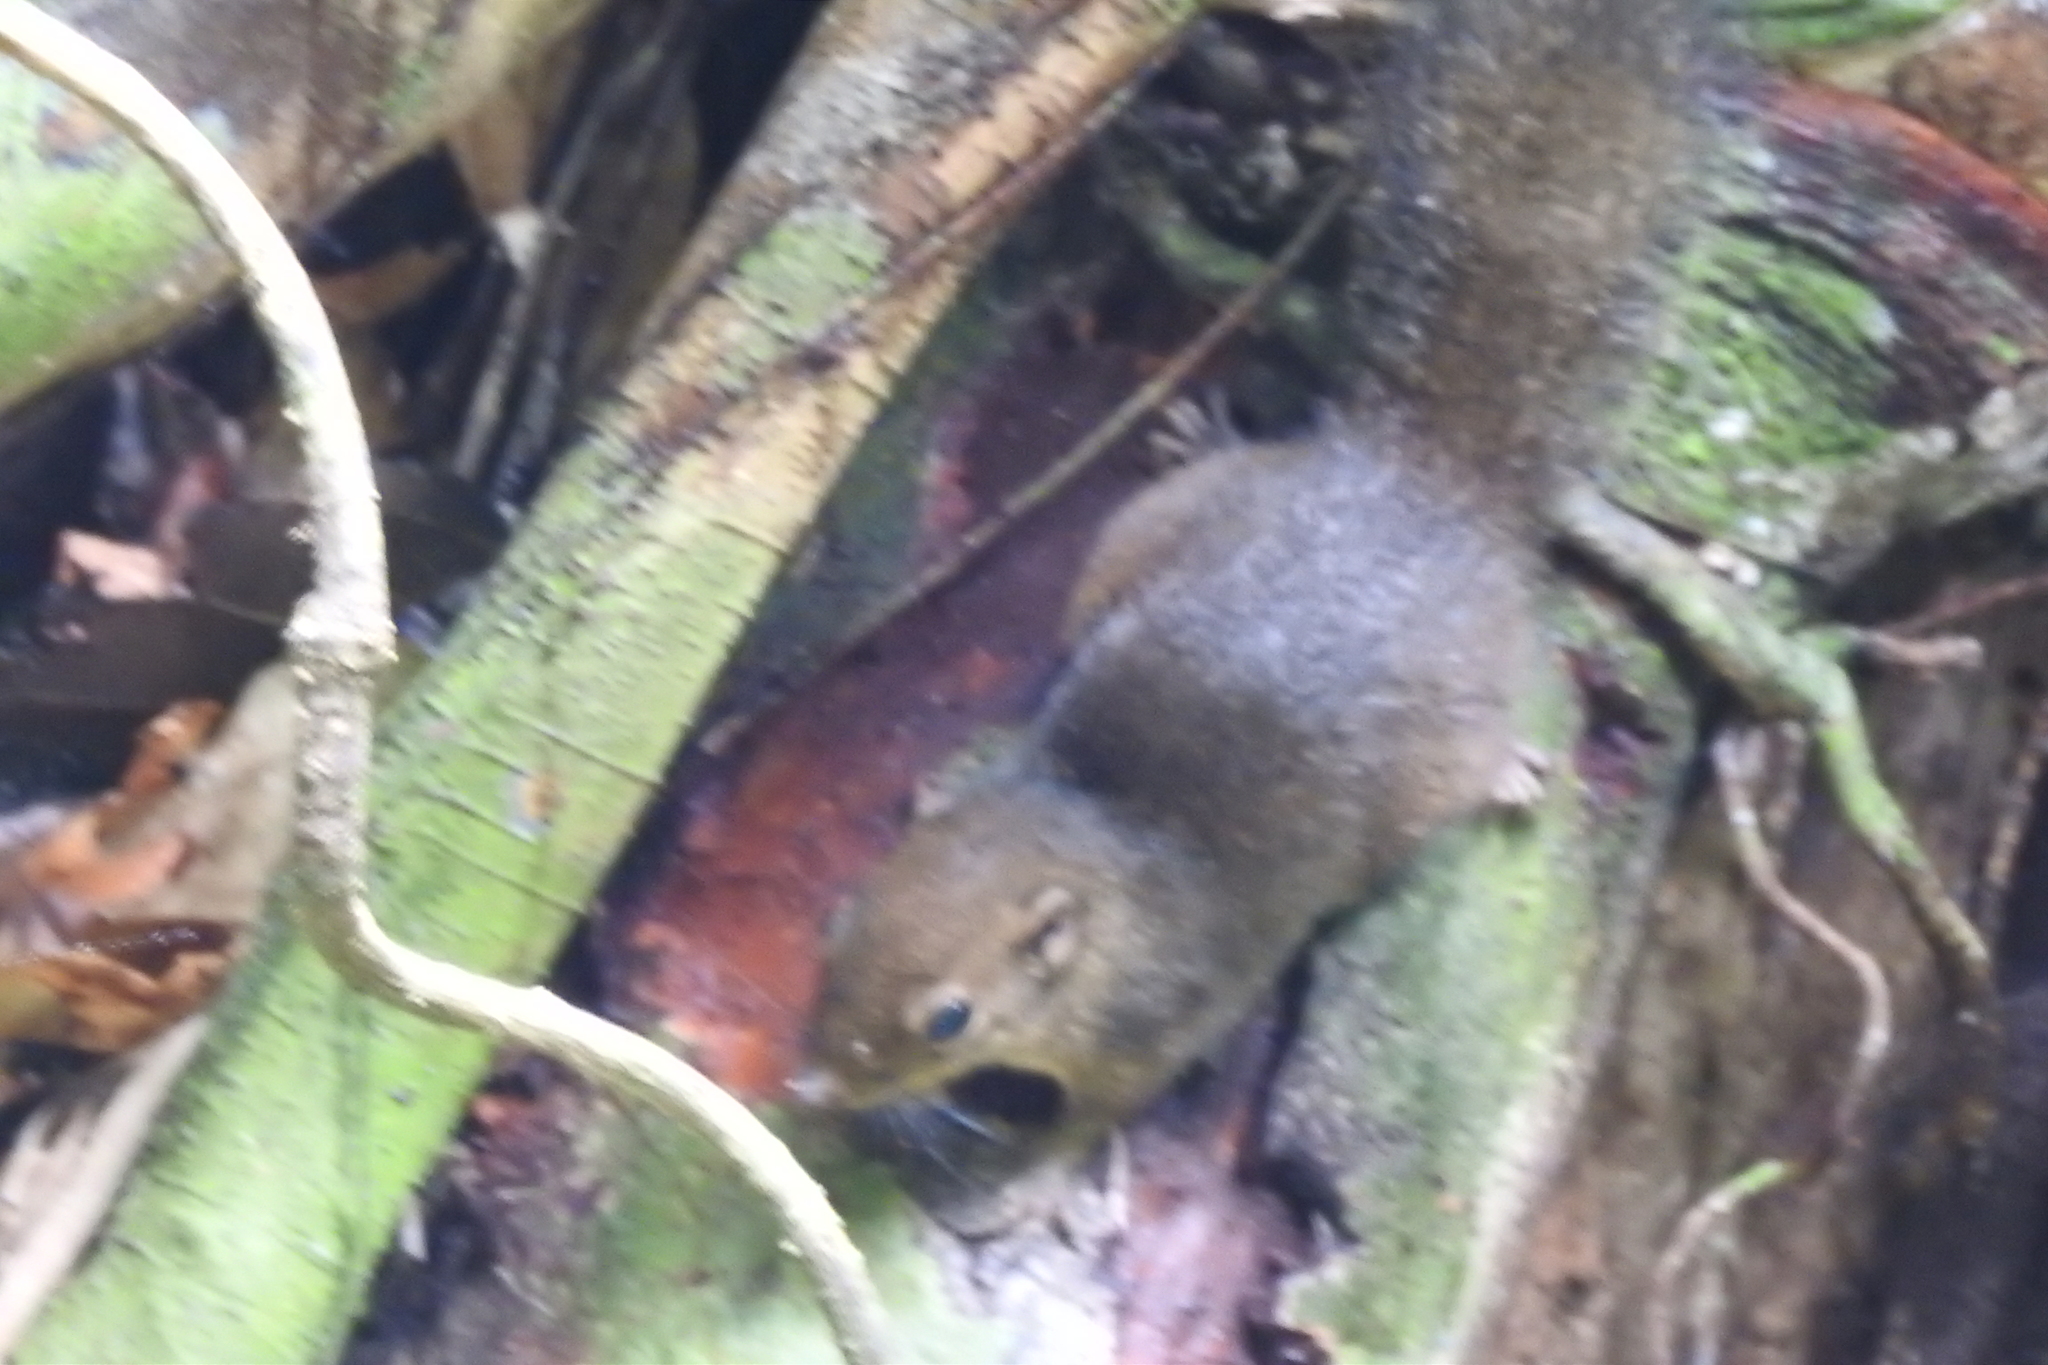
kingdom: Animalia
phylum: Chordata
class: Mammalia
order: Rodentia
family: Sciuridae
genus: Sundasciurus
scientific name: Sundasciurus lowii
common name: Low's squirrel
